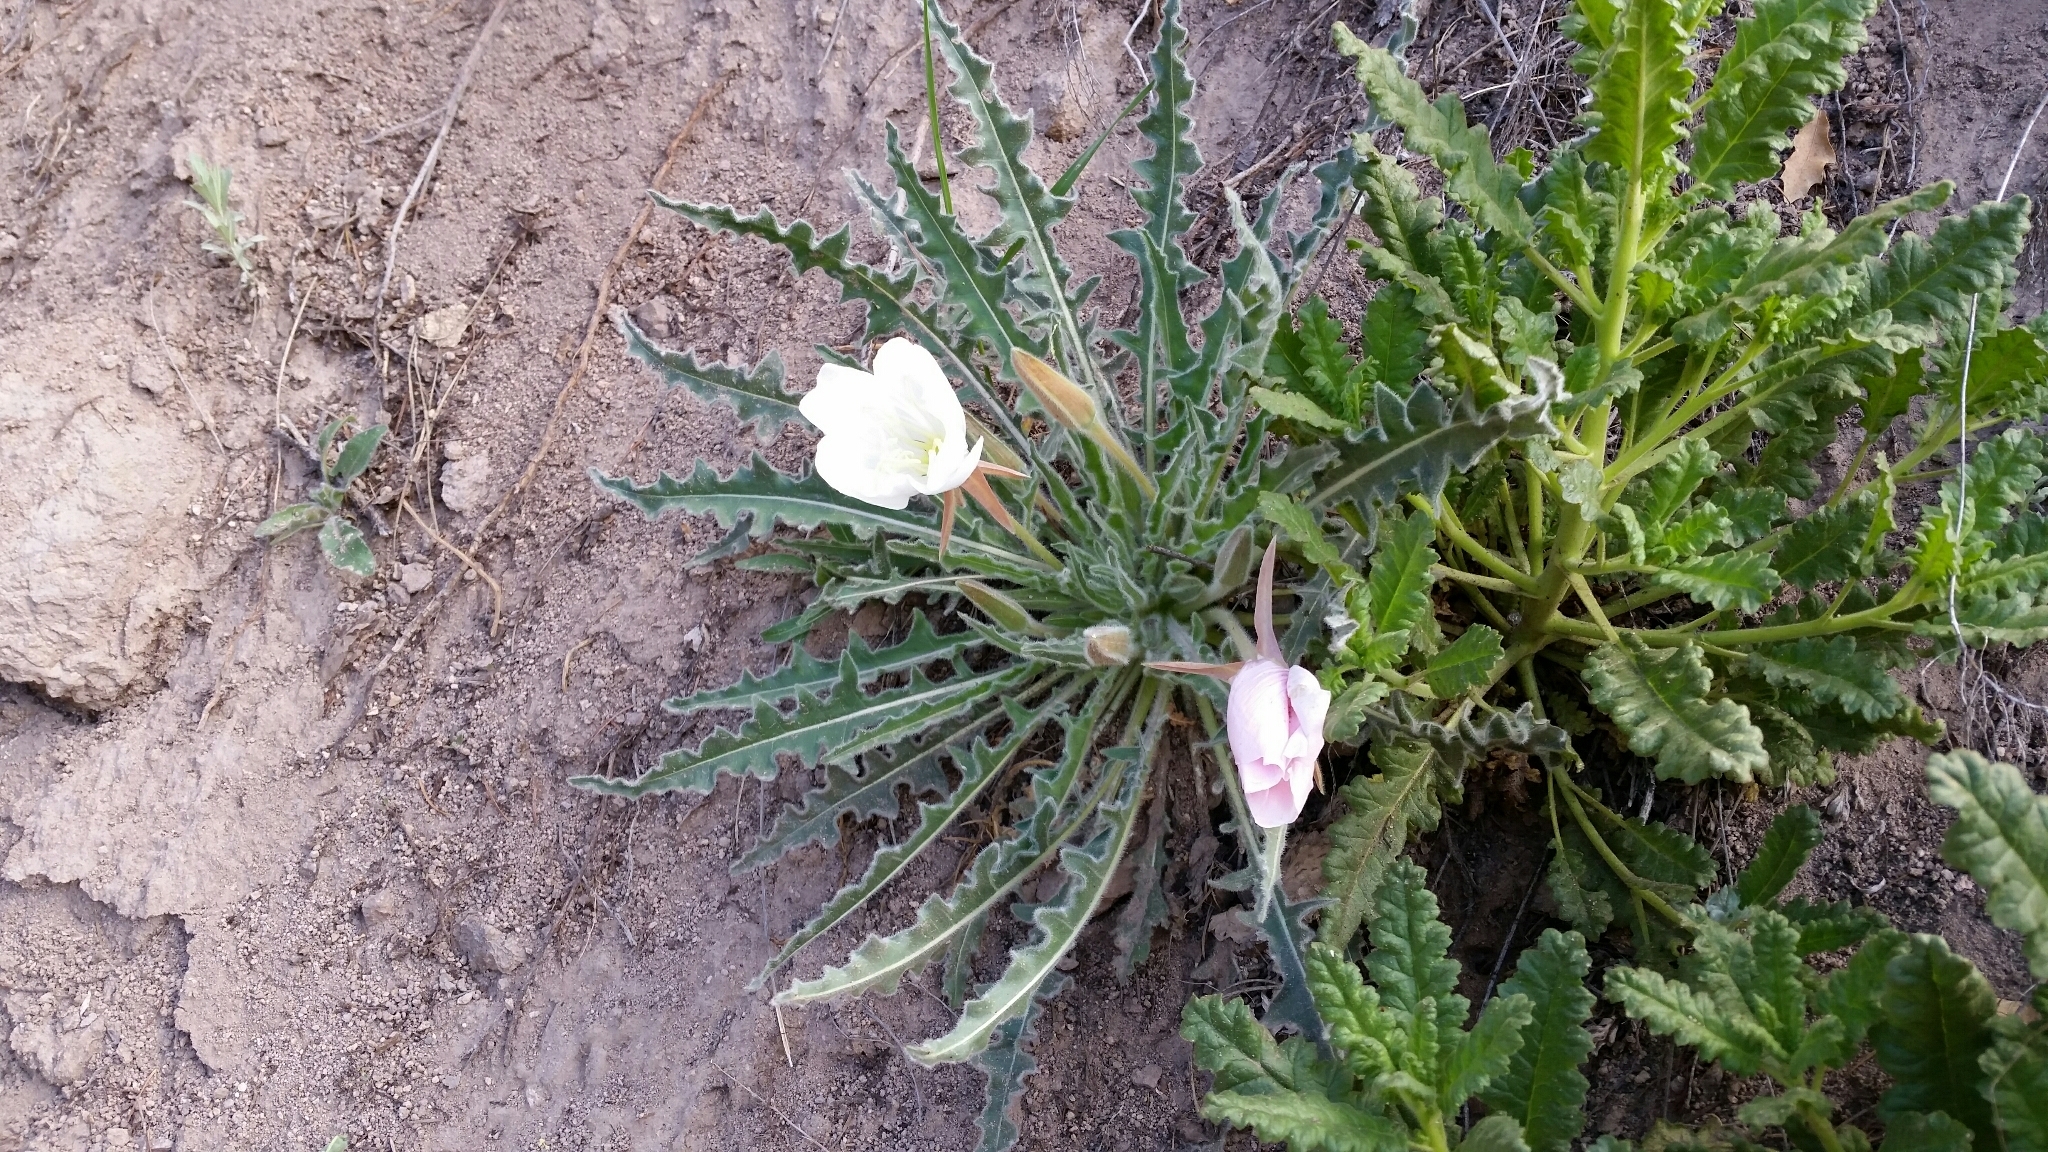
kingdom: Plantae
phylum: Tracheophyta
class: Magnoliopsida
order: Myrtales
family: Onagraceae
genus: Oenothera
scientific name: Oenothera cespitosa
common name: Tufted evening-primrose
